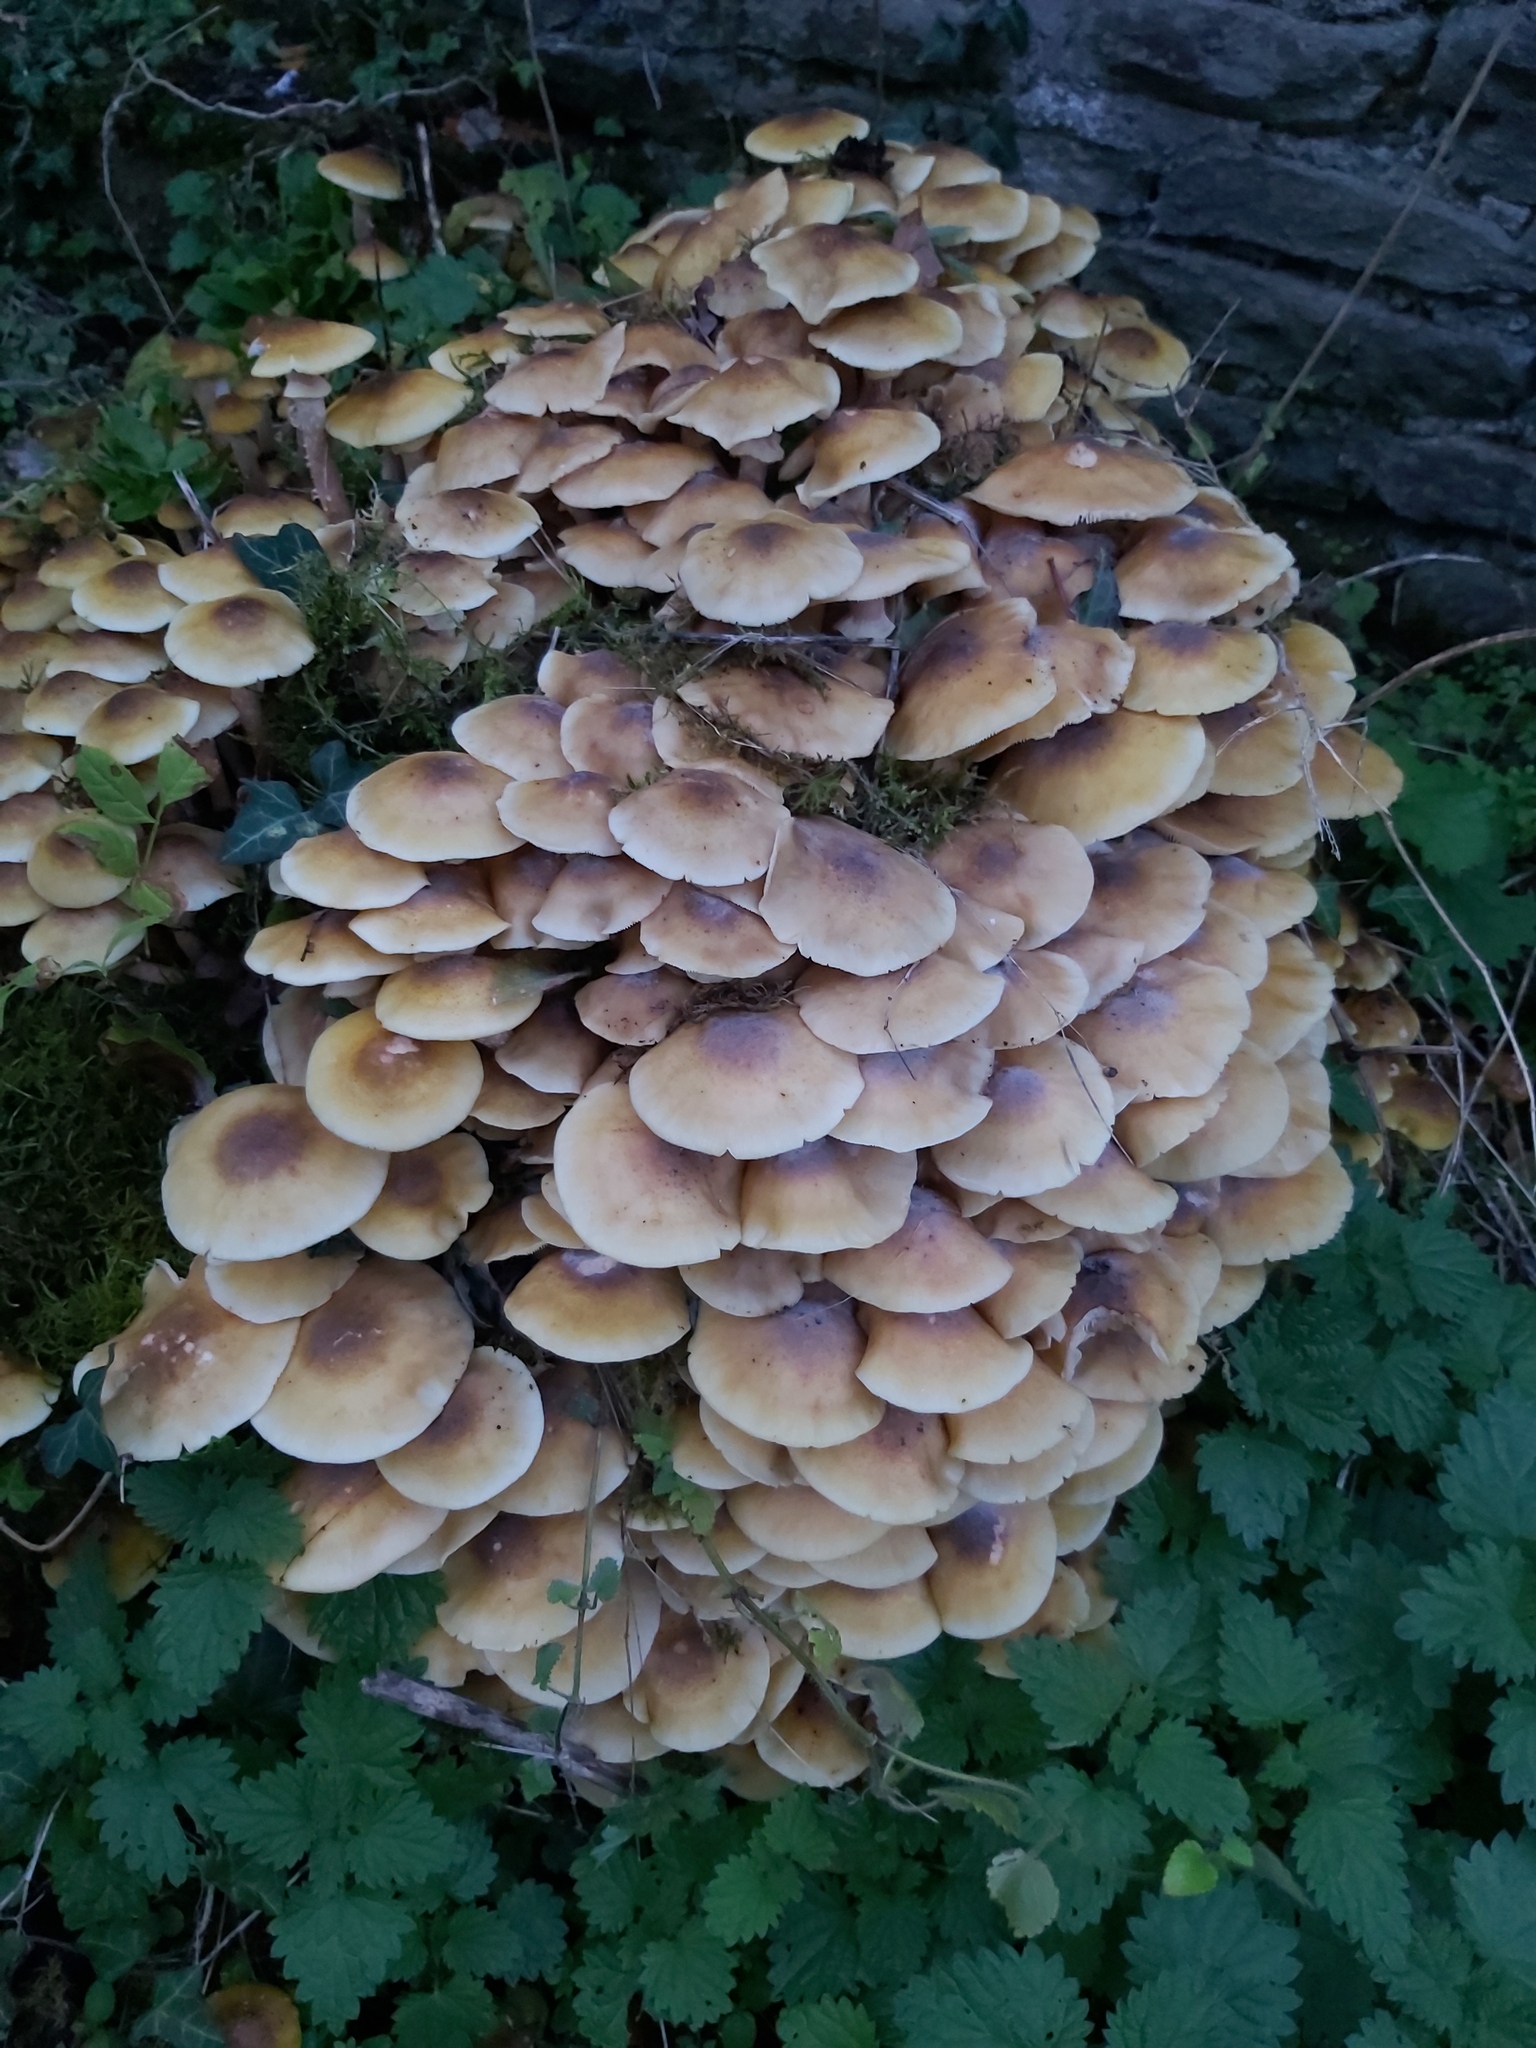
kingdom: Fungi
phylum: Basidiomycota
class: Agaricomycetes
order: Agaricales
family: Physalacriaceae
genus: Armillaria
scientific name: Armillaria mellea
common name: Honey fungus
